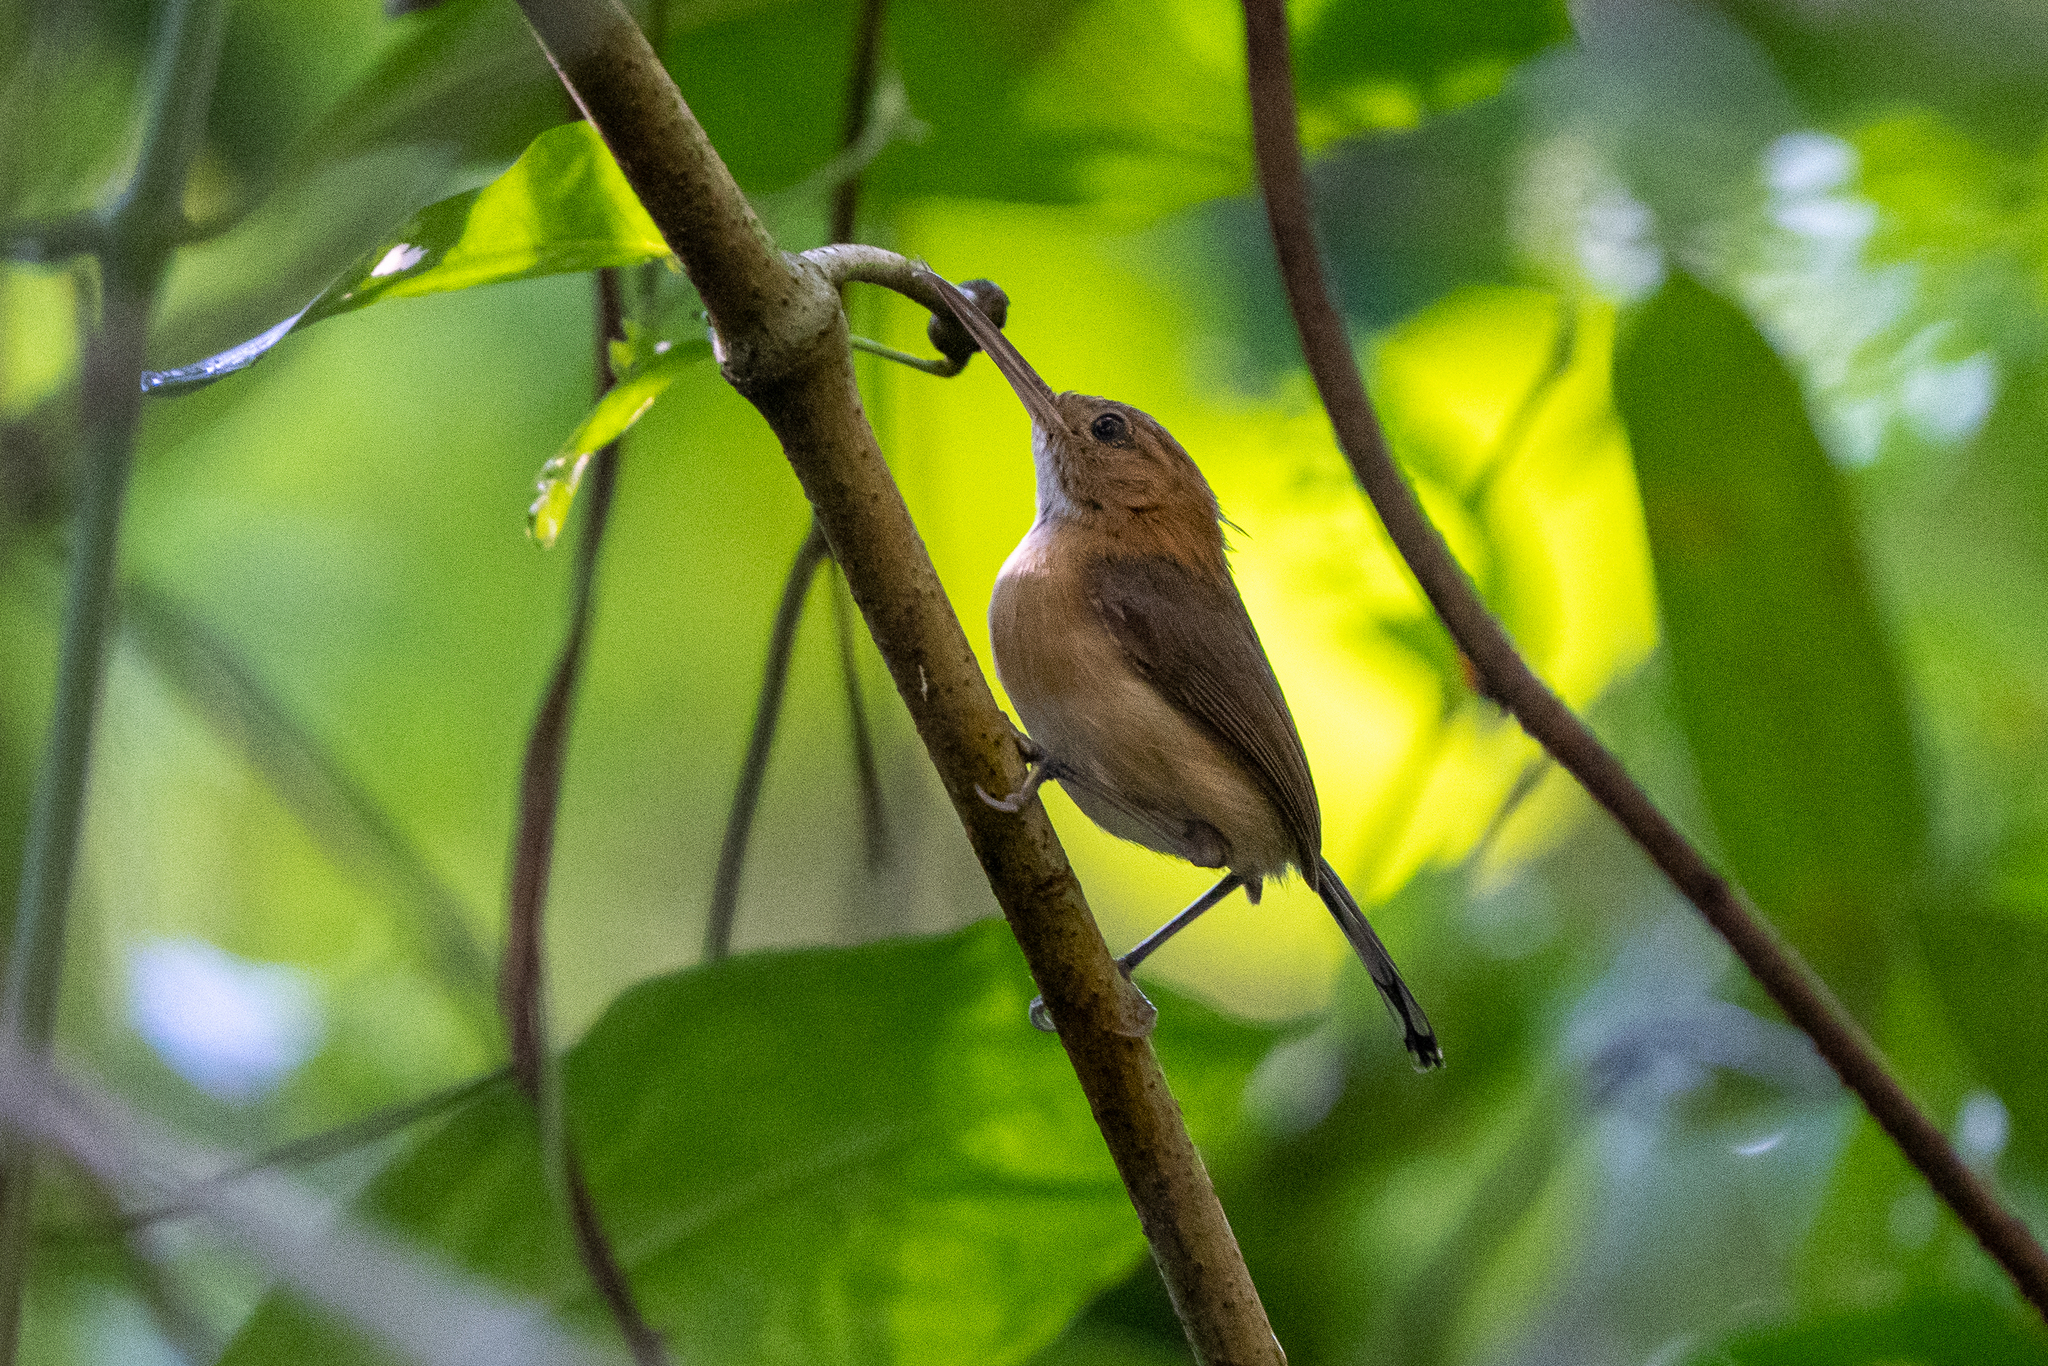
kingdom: Animalia
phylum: Chordata
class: Aves
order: Passeriformes
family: Polioptilidae
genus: Ramphocaenus
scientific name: Ramphocaenus melanurus
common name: Long-billed gnatwren
